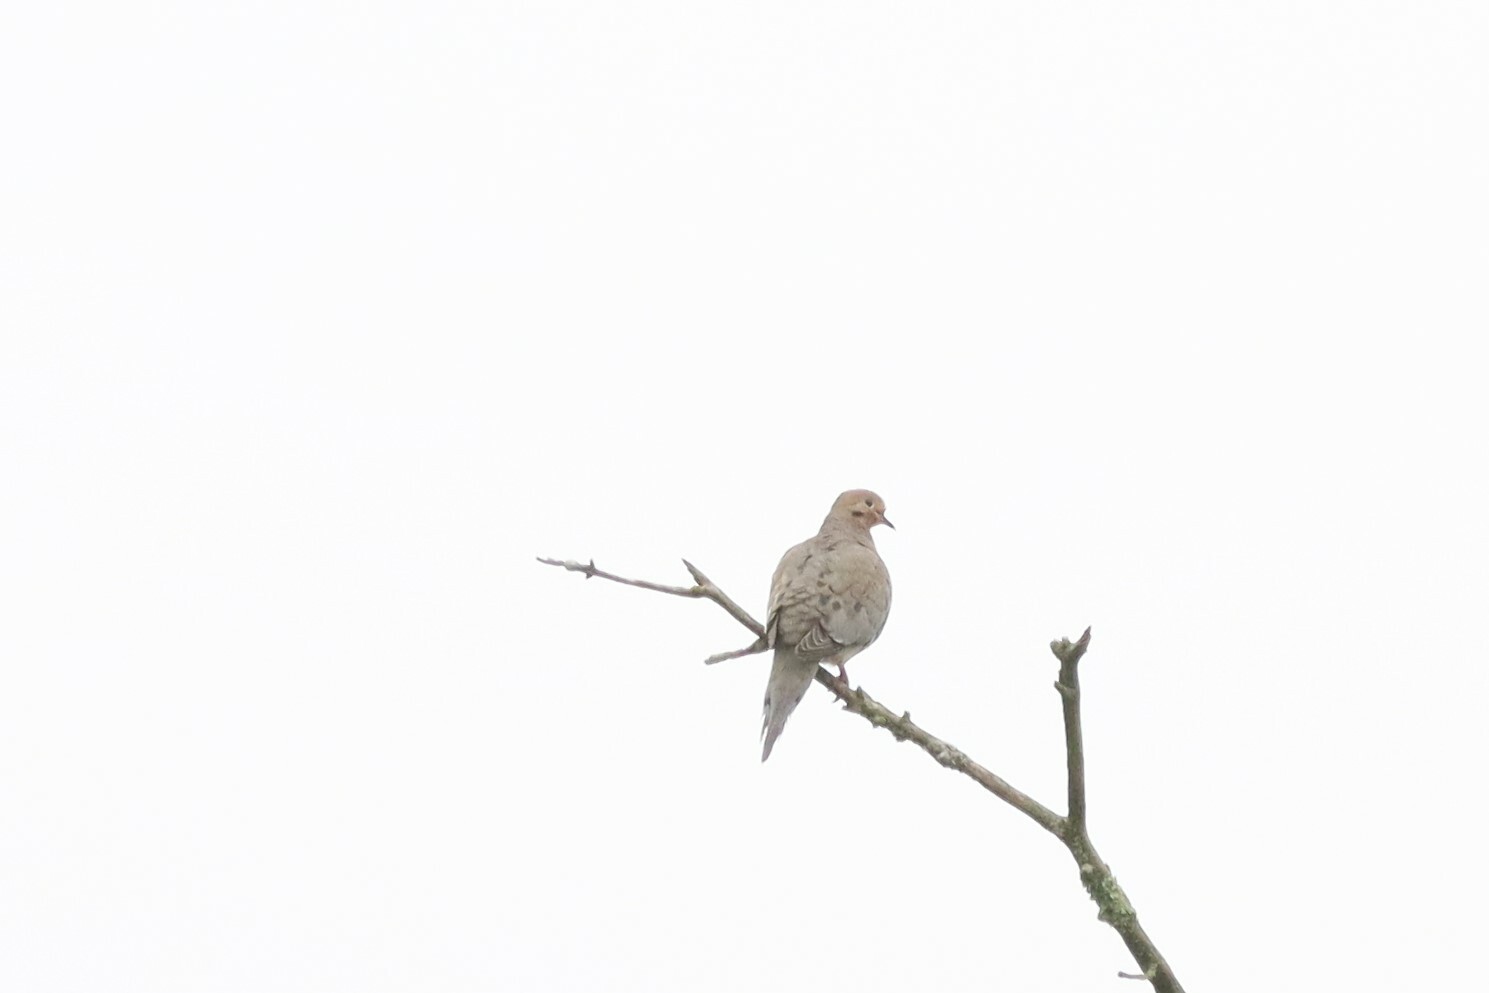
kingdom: Animalia
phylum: Chordata
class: Aves
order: Columbiformes
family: Columbidae
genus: Zenaida
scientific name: Zenaida macroura
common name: Mourning dove
